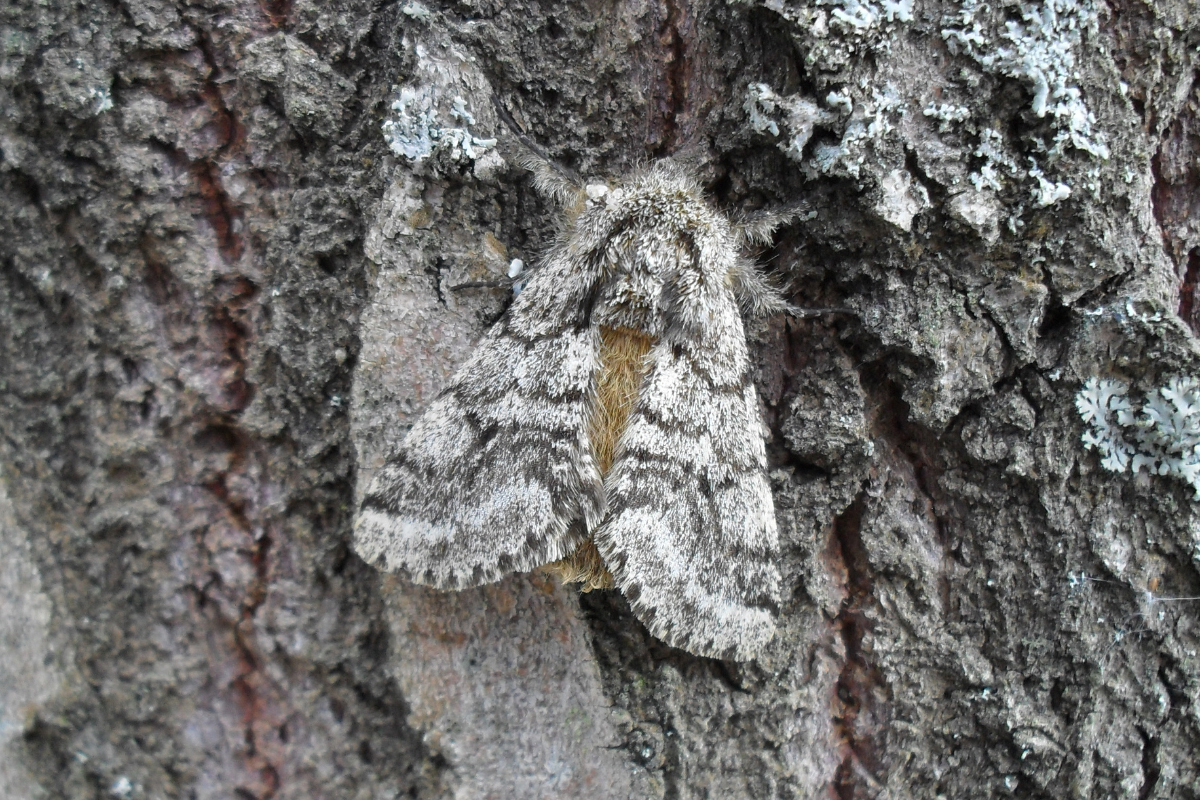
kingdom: Animalia
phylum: Arthropoda
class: Insecta
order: Lepidoptera
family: Geometridae
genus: Lycia
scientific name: Lycia hirtaria
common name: Brindled beauty
